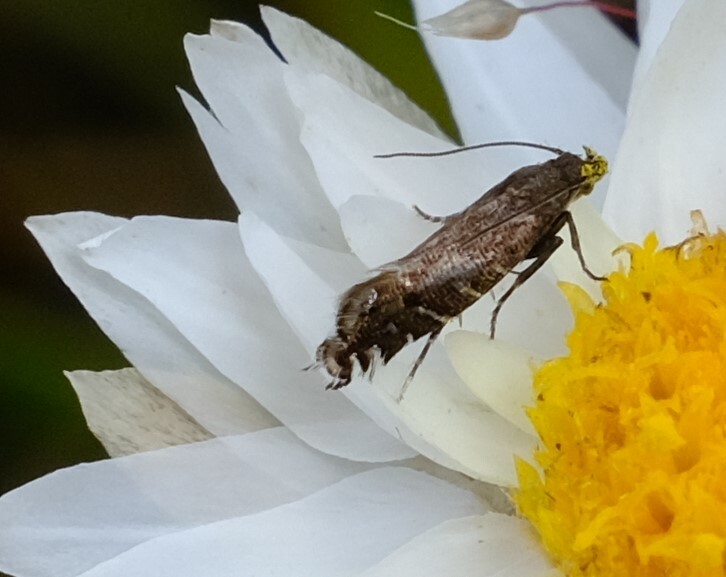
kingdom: Animalia
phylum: Arthropoda
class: Insecta
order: Lepidoptera
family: Glyphipterigidae
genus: Glyphipterix
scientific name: Glyphipterix platydisema
